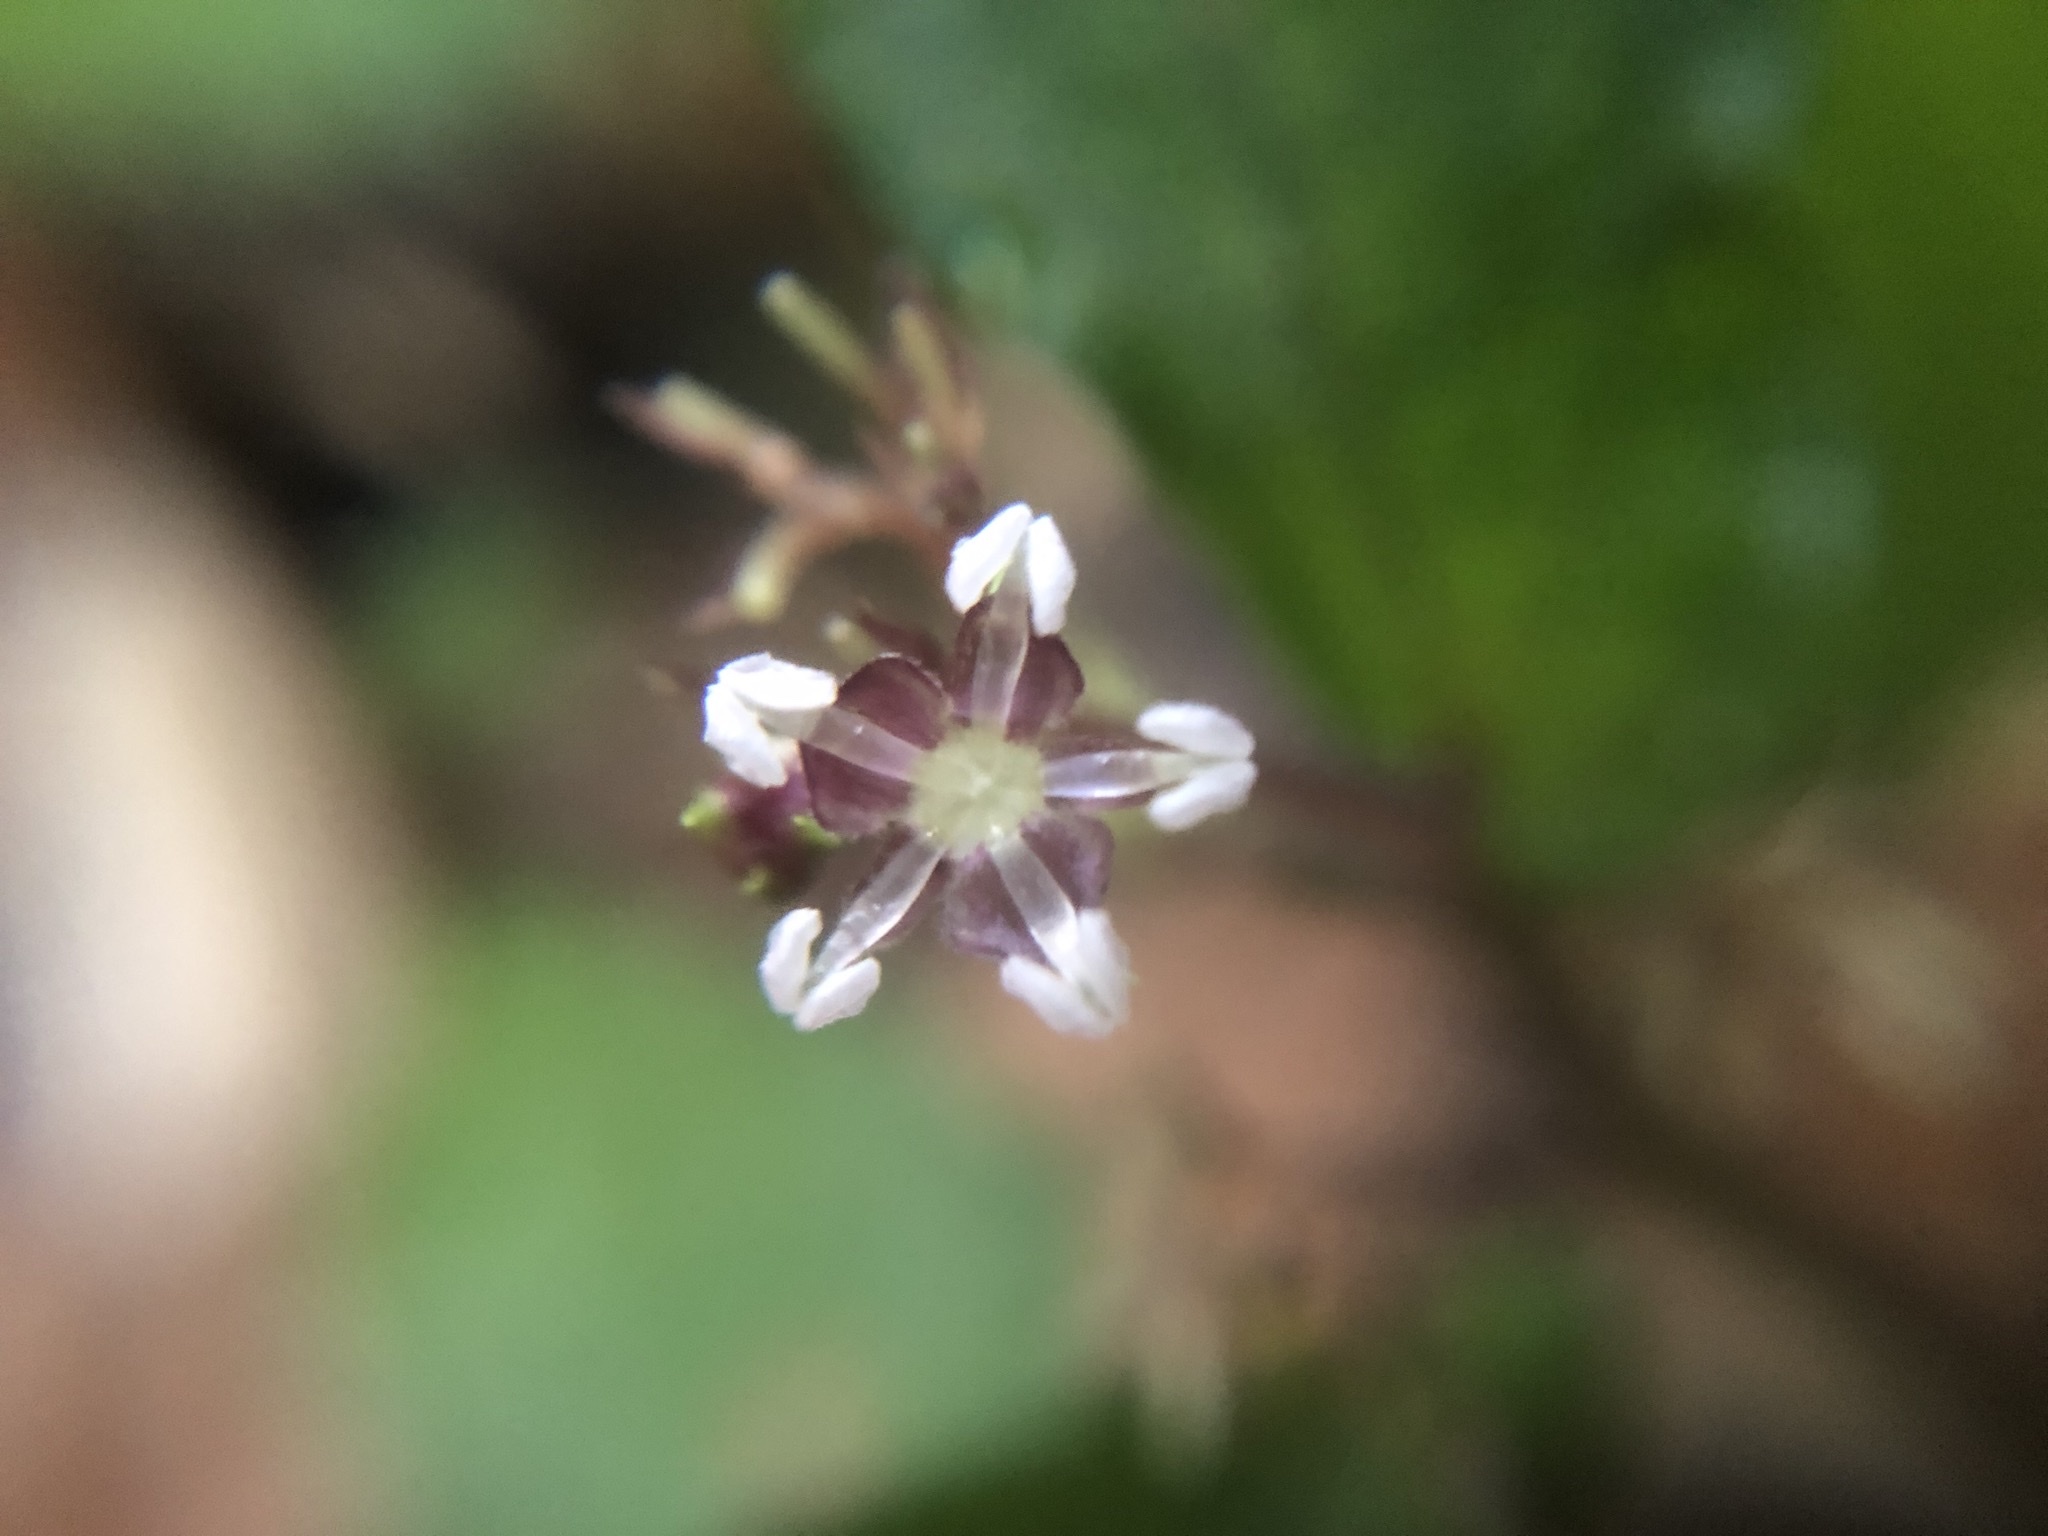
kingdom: Plantae
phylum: Tracheophyta
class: Magnoliopsida
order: Rosales
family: Urticaceae
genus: Elatostema
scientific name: Elatostema radicans
